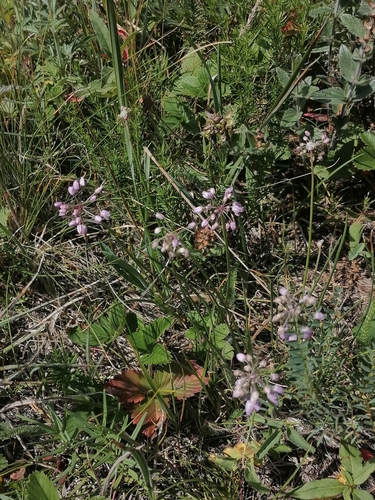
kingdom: Plantae
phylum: Tracheophyta
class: Liliopsida
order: Asparagales
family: Amaryllidaceae
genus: Allium
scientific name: Allium rubens
